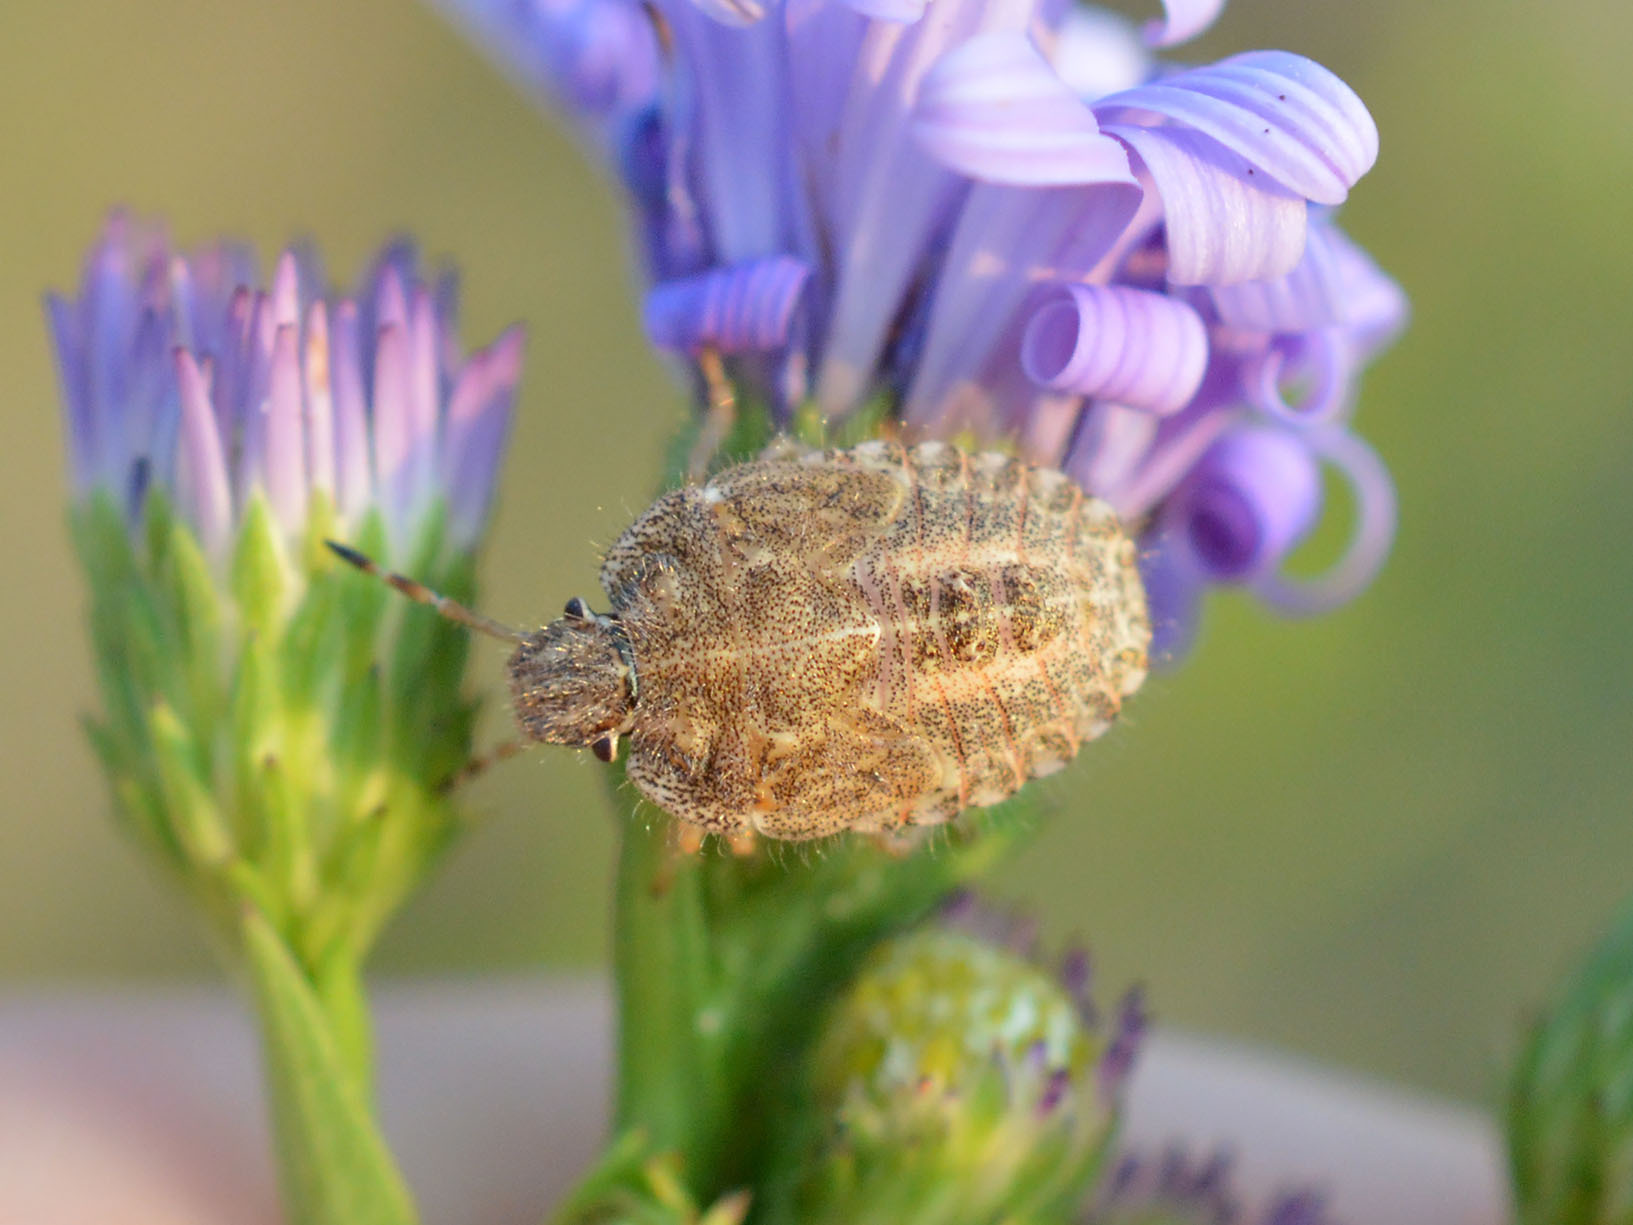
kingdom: Animalia
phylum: Arthropoda
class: Insecta
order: Hemiptera
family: Pentatomidae
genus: Dolycoris
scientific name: Dolycoris baccarum
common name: Sloe bug
